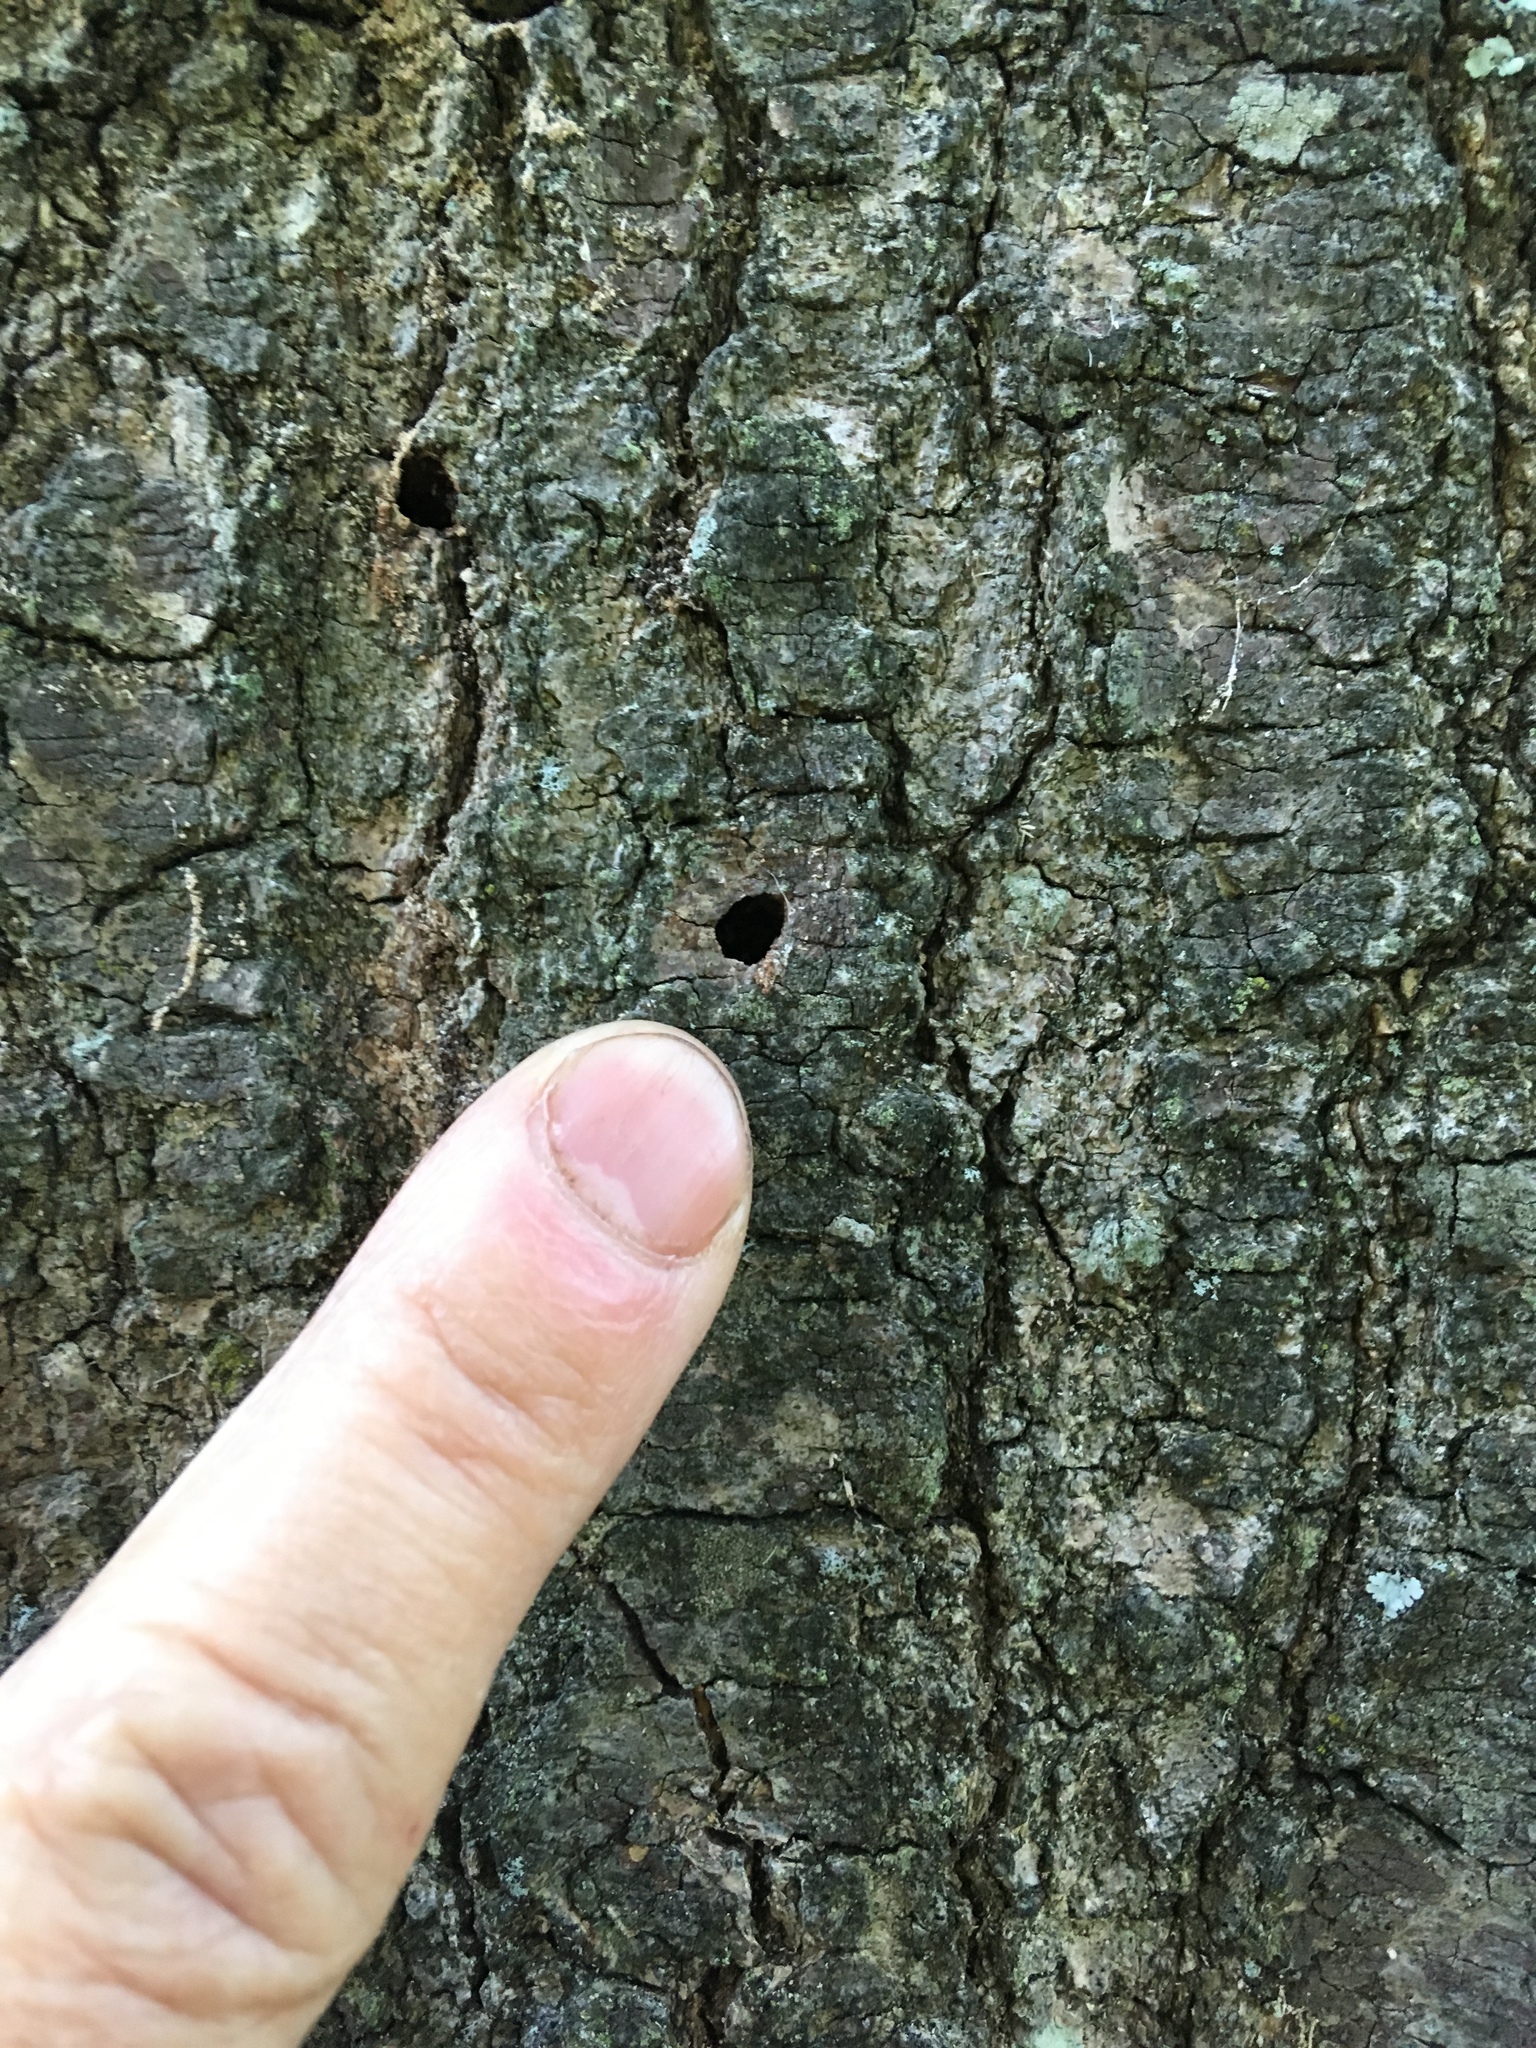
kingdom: Plantae
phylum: Tracheophyta
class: Magnoliopsida
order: Fagales
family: Fagaceae
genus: Quercus
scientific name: Quercus palustris
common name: Pin oak
